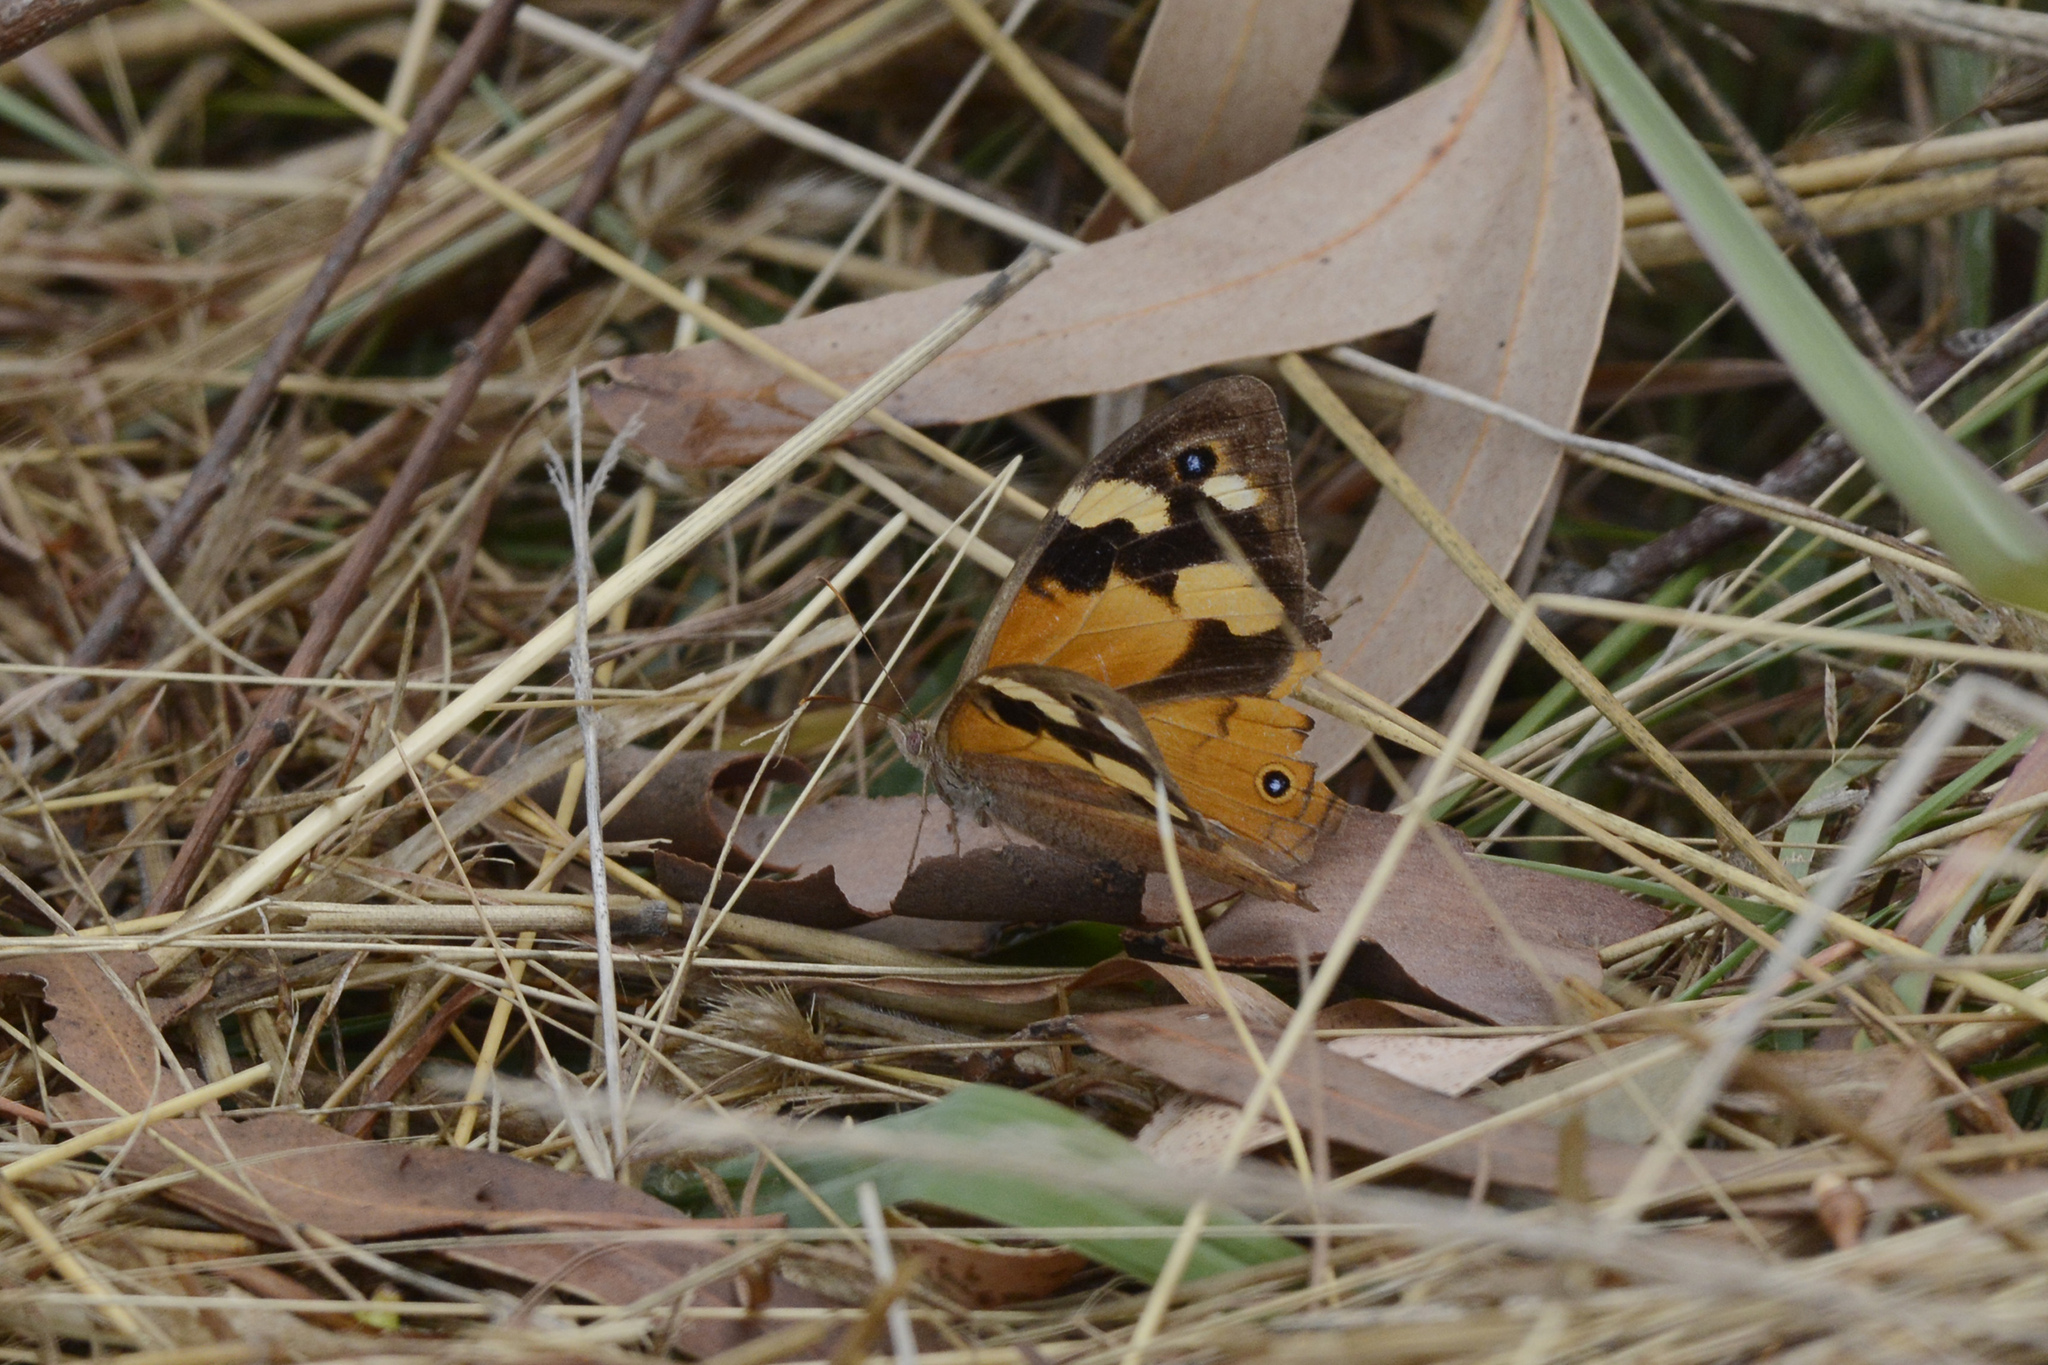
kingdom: Animalia
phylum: Arthropoda
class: Insecta
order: Lepidoptera
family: Nymphalidae
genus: Heteronympha
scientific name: Heteronympha merope
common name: Common brown
